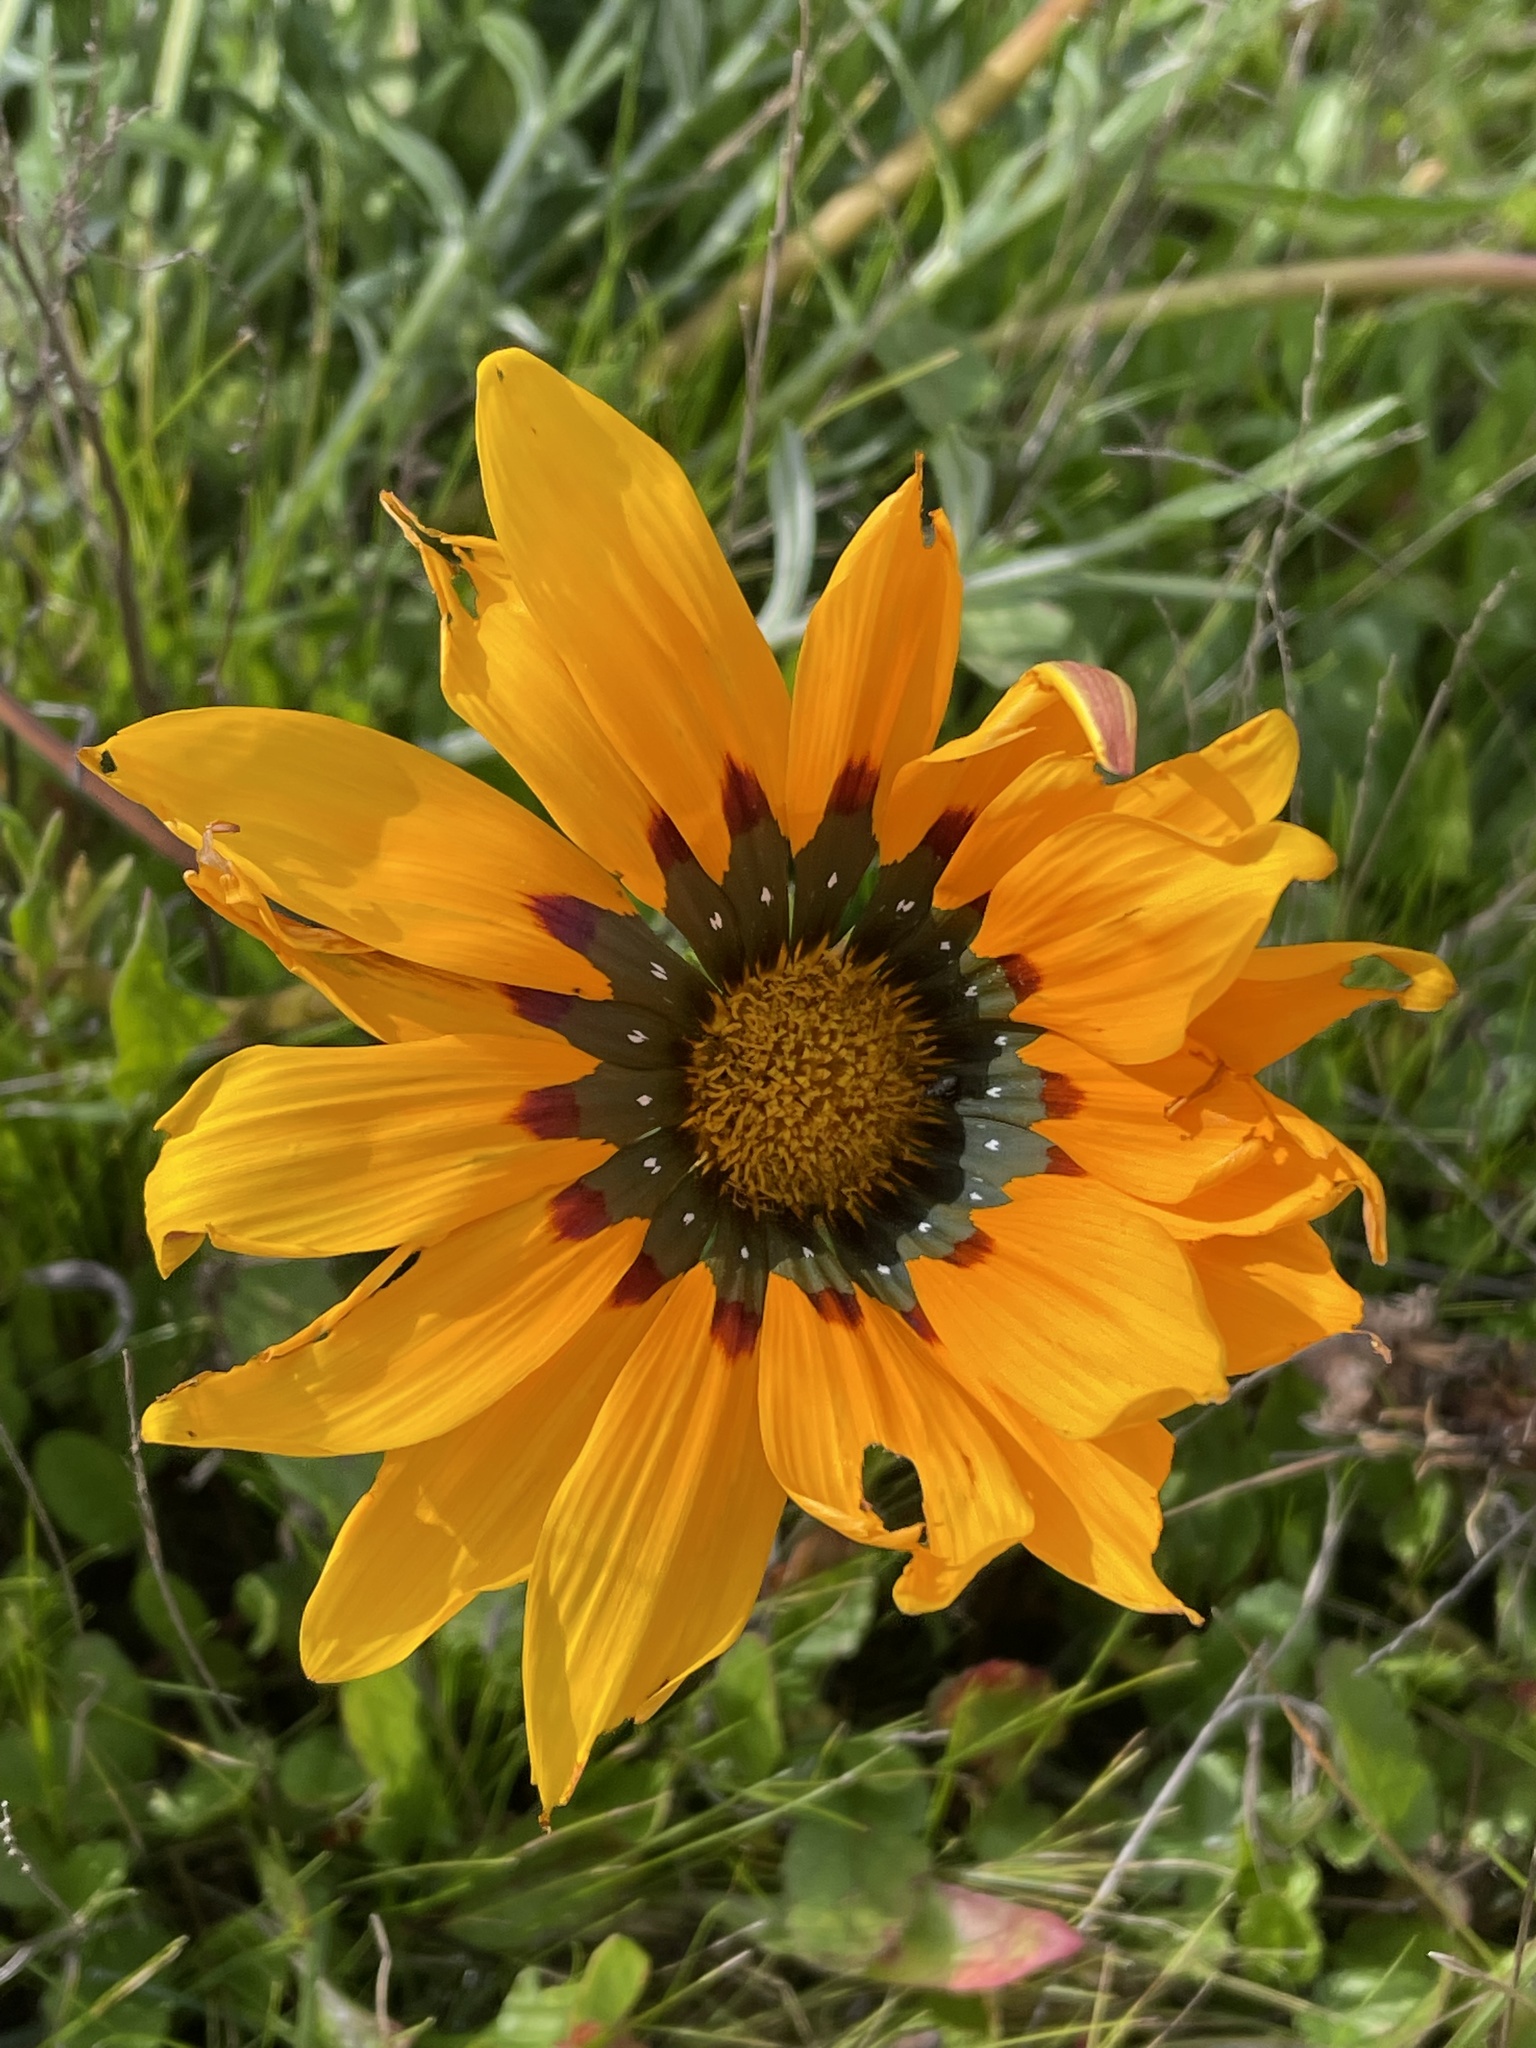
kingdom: Plantae
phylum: Tracheophyta
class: Magnoliopsida
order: Asterales
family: Asteraceae
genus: Gazania
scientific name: Gazania splendens
